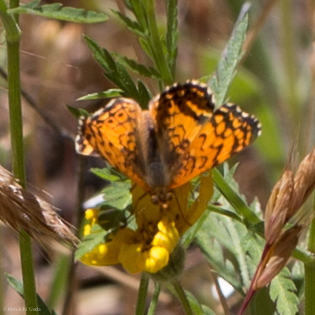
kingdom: Animalia
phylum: Arthropoda
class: Insecta
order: Lepidoptera
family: Nymphalidae
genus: Eresia
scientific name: Eresia aveyrona
